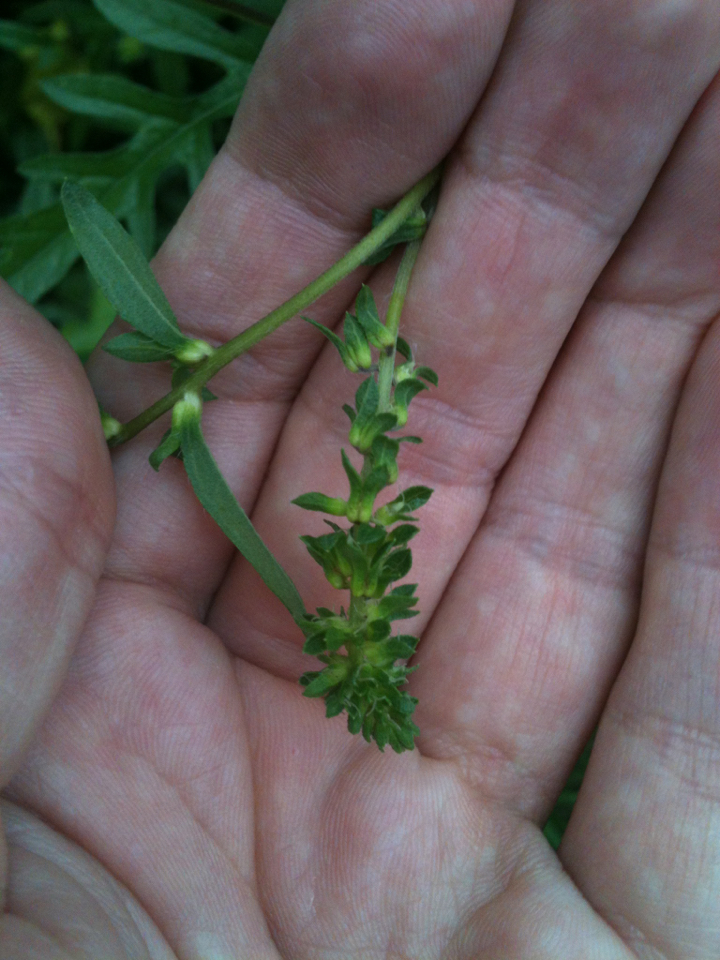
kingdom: Plantae
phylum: Tracheophyta
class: Magnoliopsida
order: Asterales
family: Asteraceae
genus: Ambrosia
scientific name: Ambrosia artemisiifolia
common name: Annual ragweed
